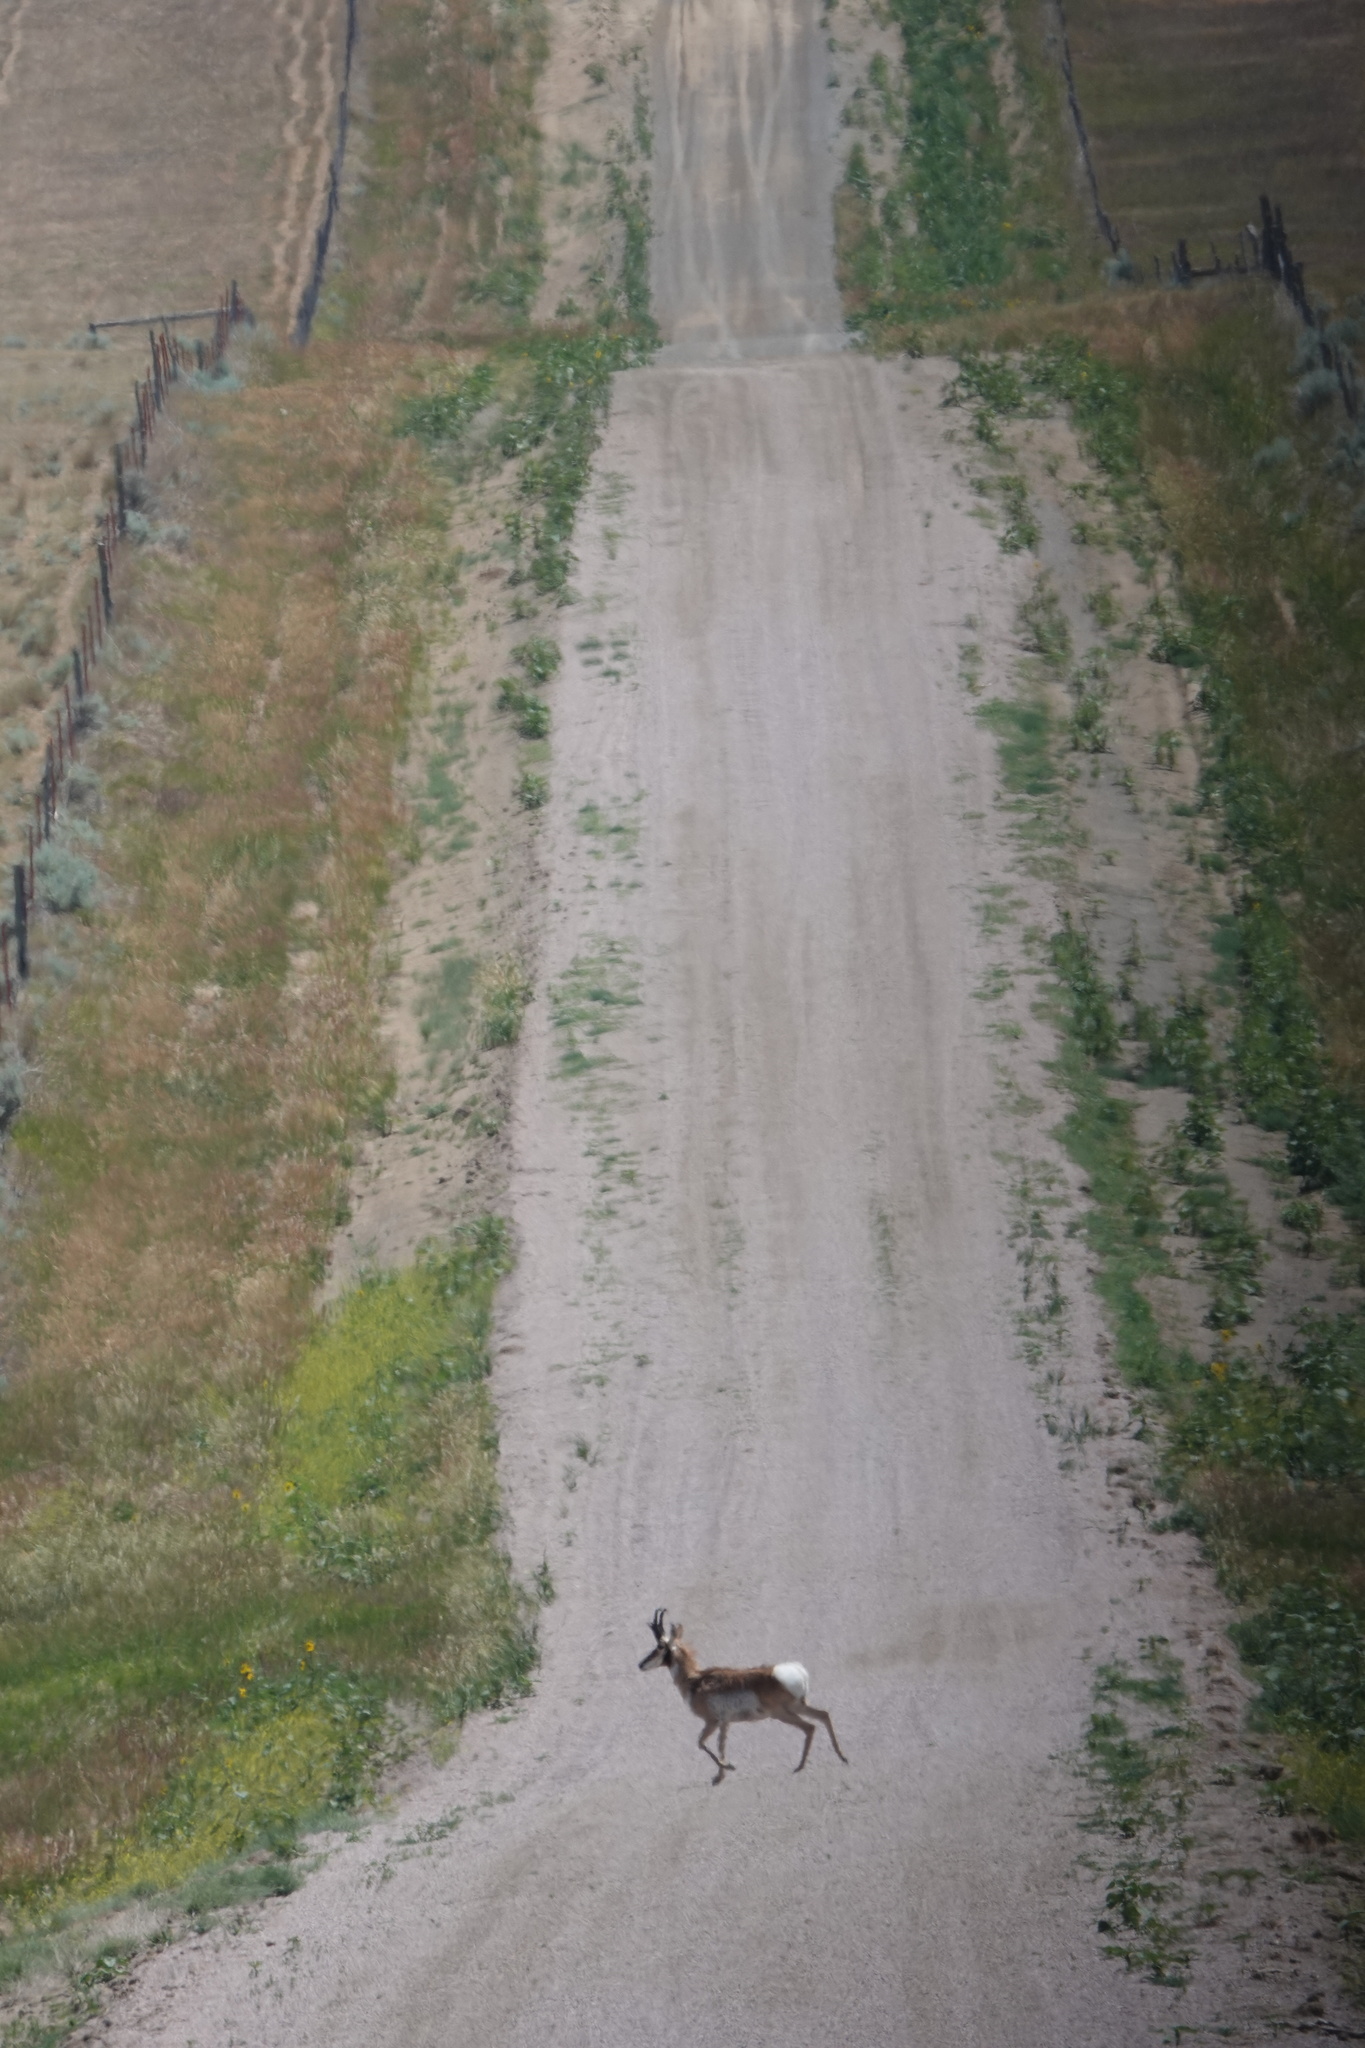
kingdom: Animalia
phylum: Chordata
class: Mammalia
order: Artiodactyla
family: Antilocapridae
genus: Antilocapra
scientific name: Antilocapra americana
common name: Pronghorn
